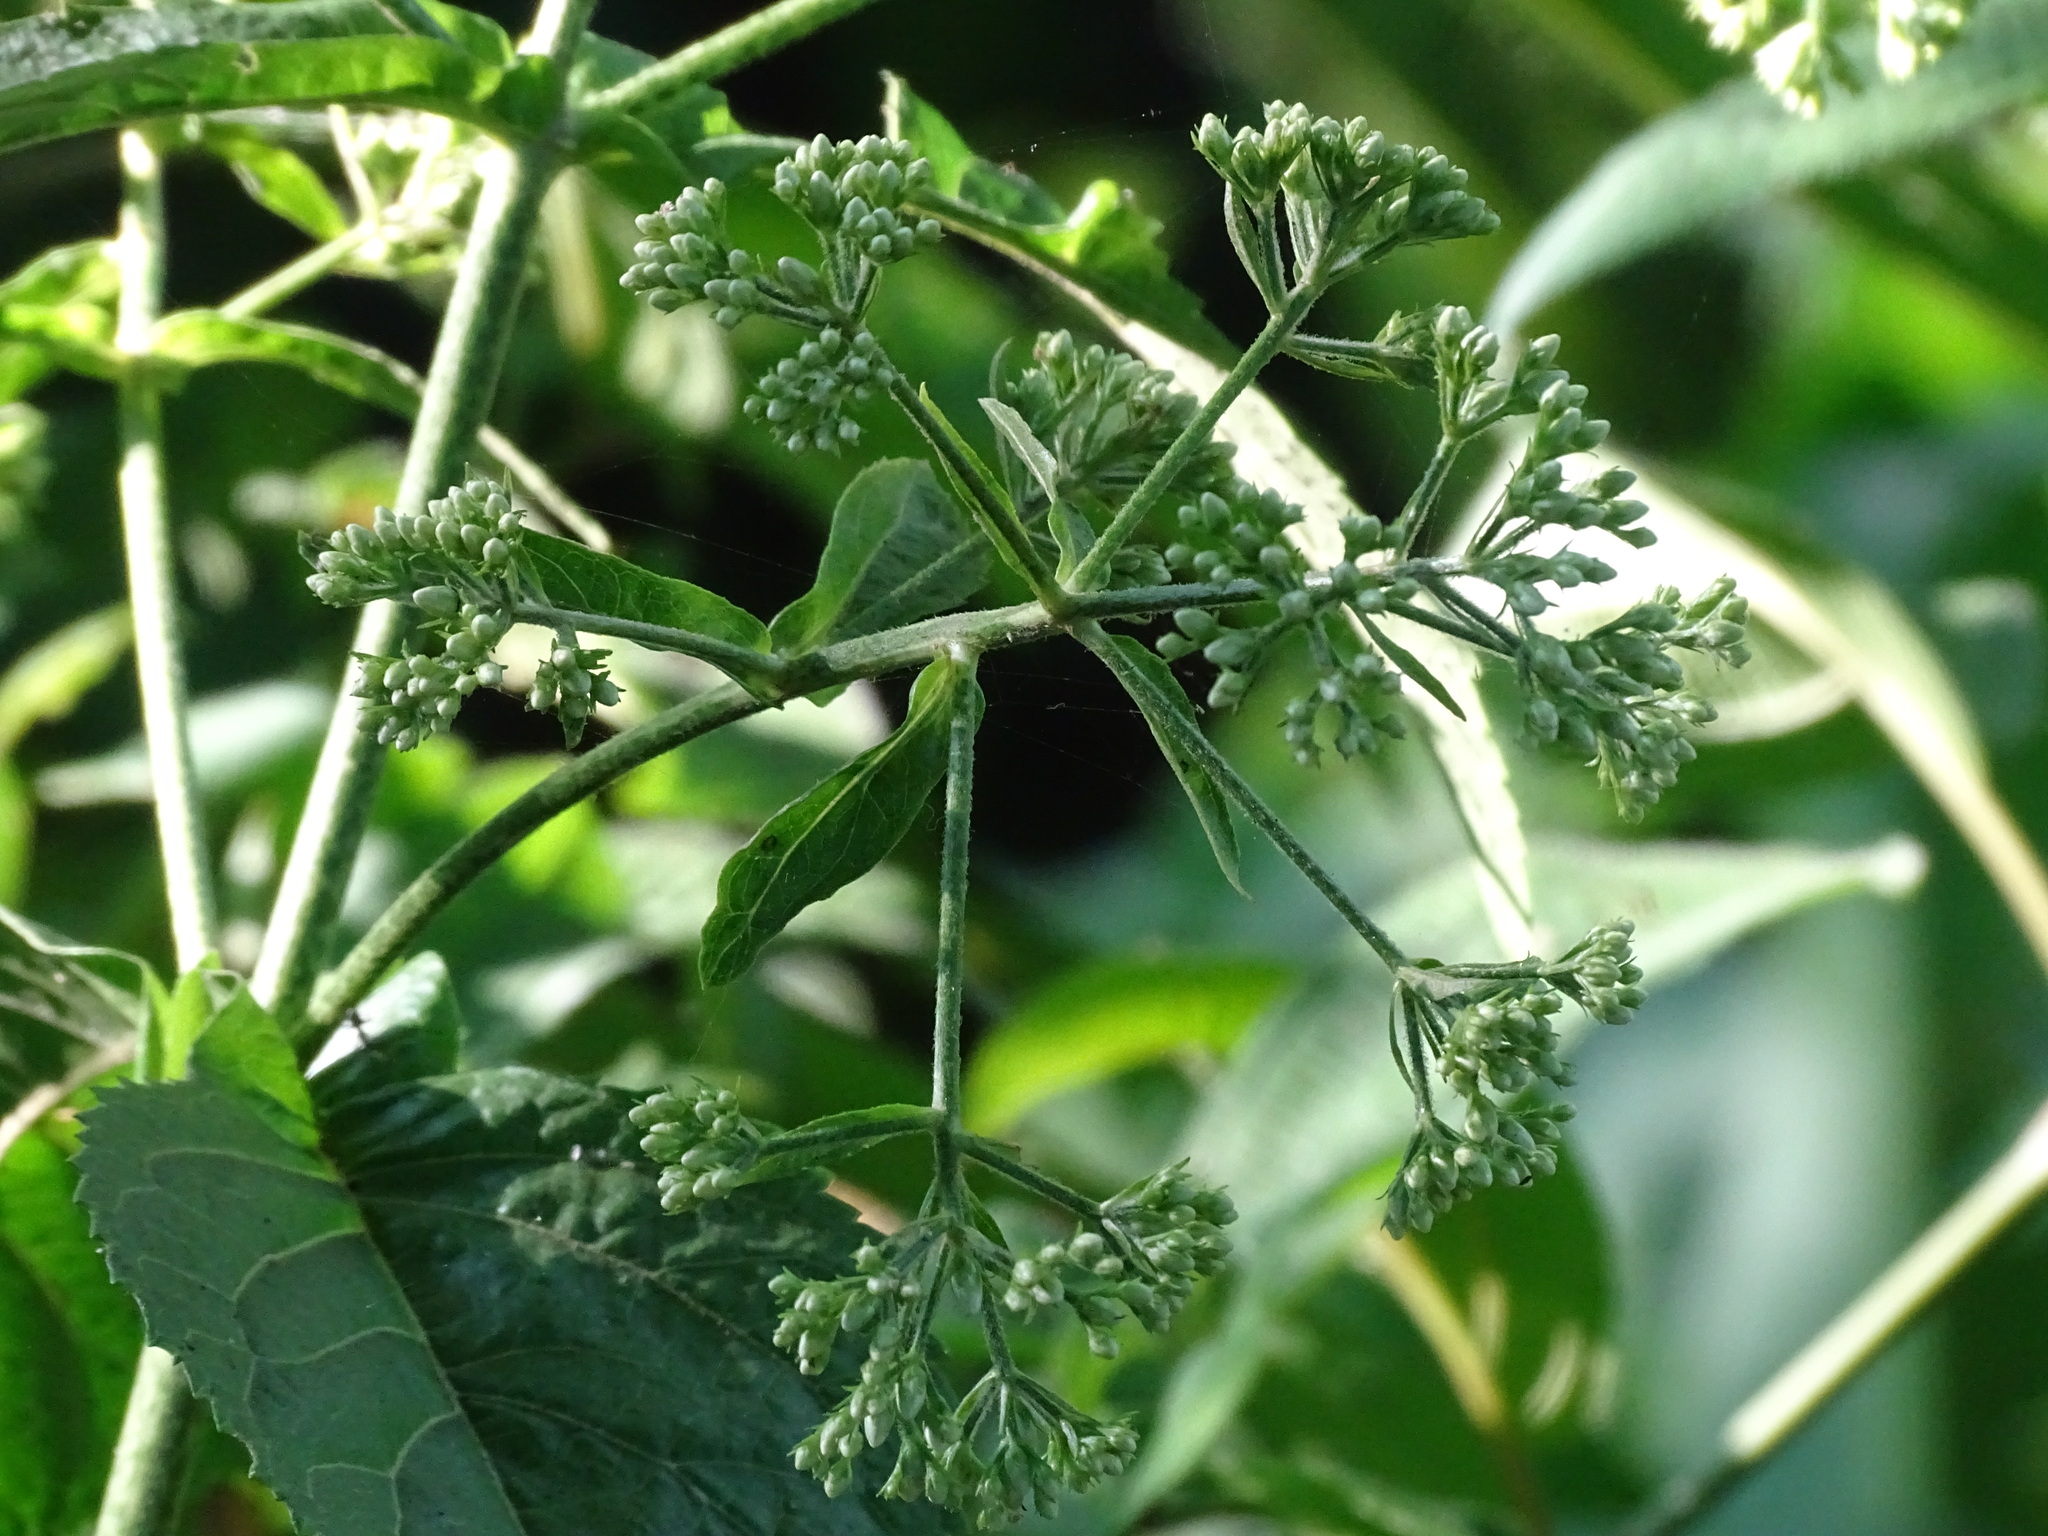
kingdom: Plantae
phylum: Tracheophyta
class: Magnoliopsida
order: Asterales
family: Asteraceae
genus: Critonia
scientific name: Critonia quadrangularis
